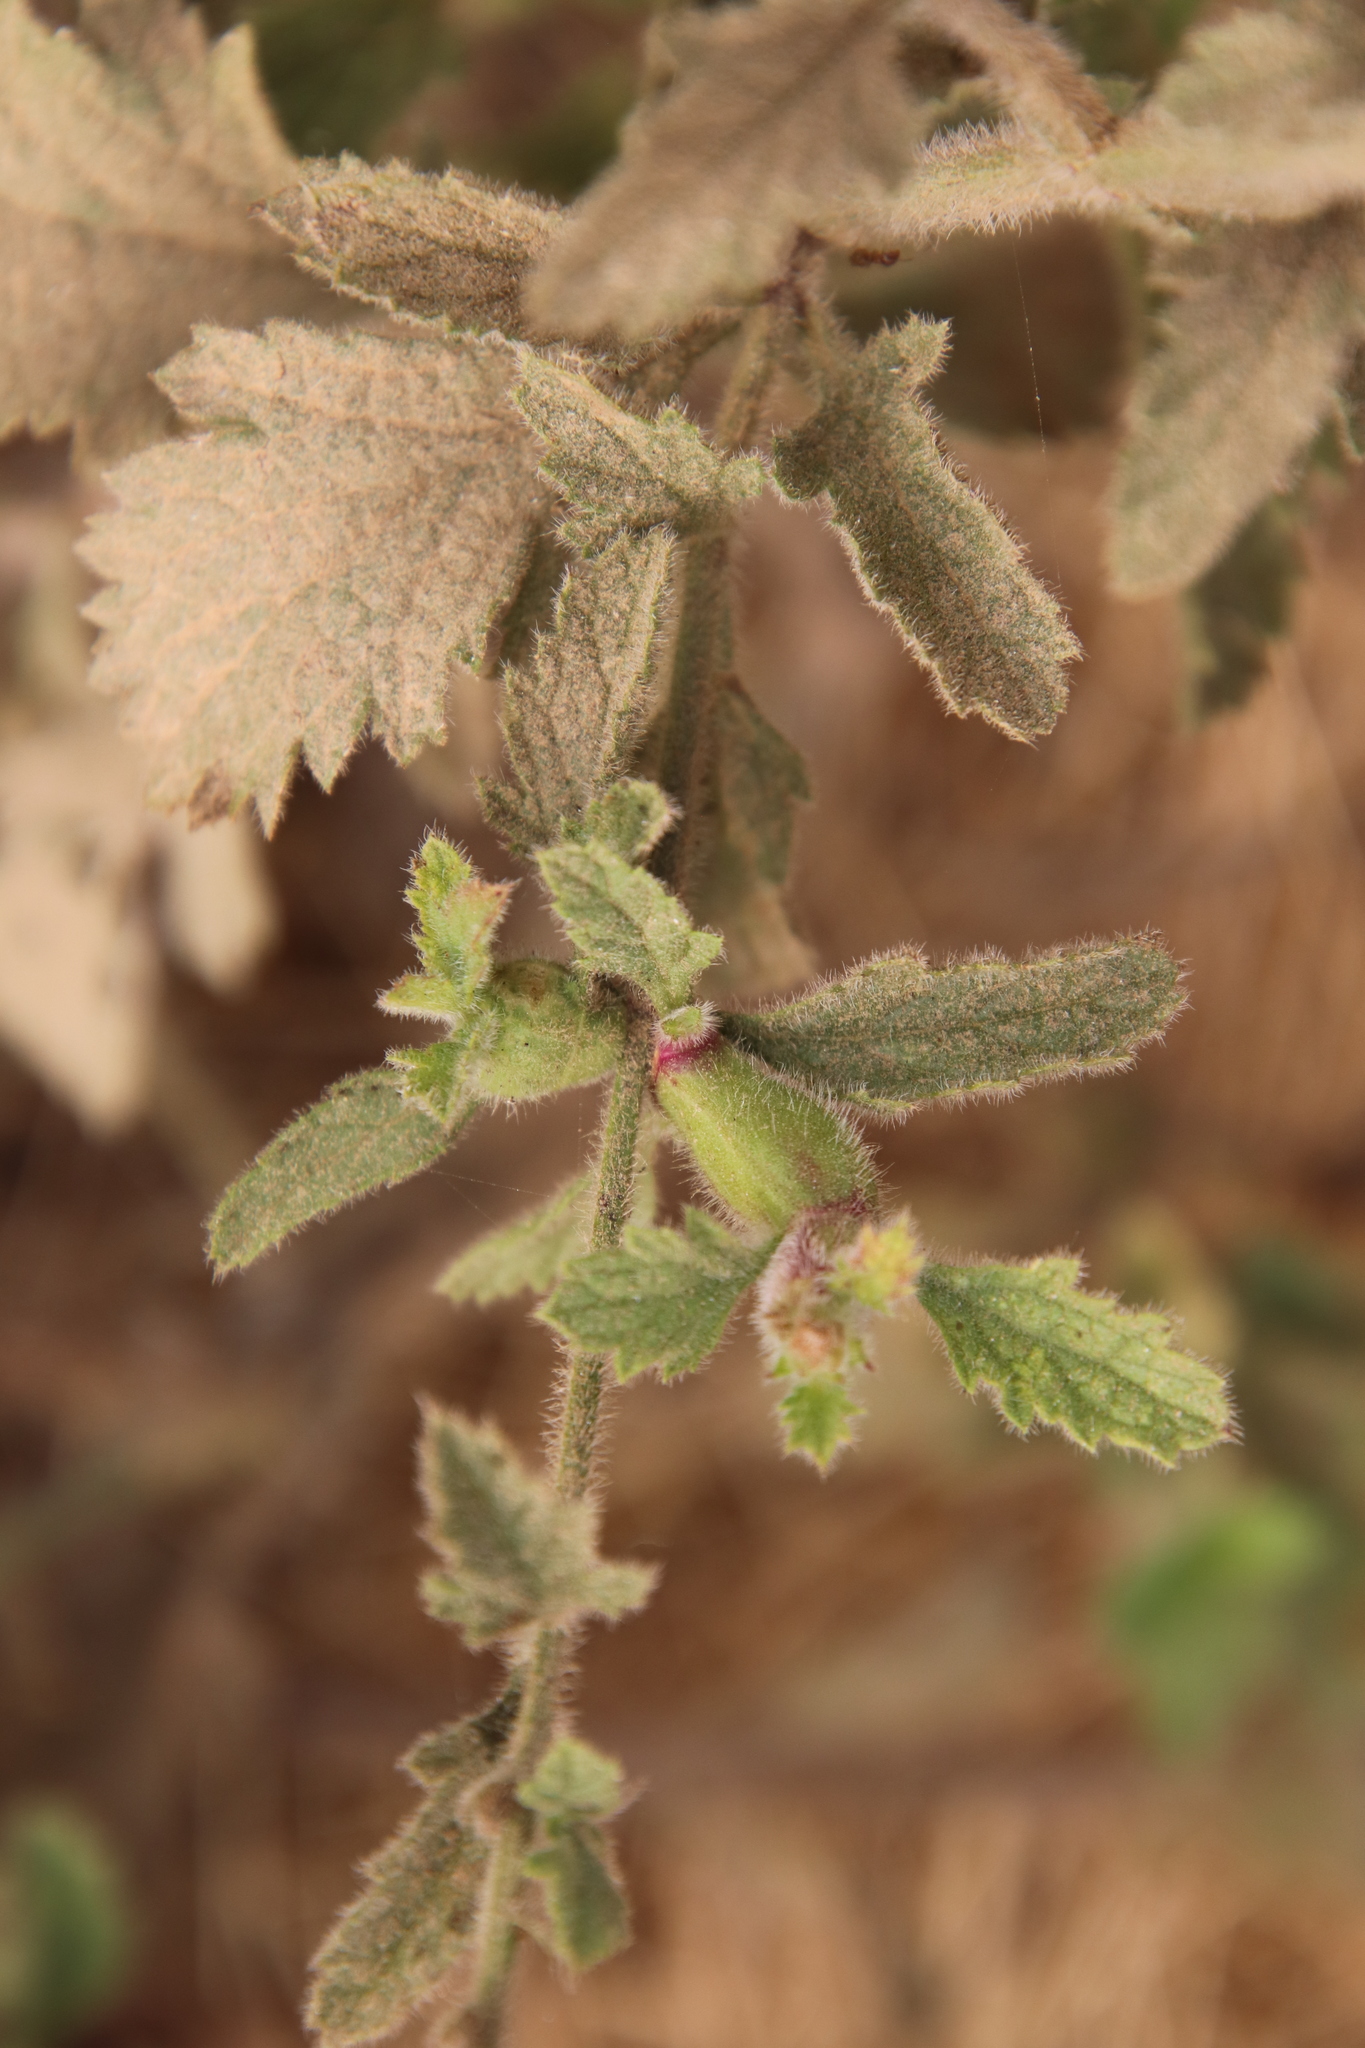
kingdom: Plantae
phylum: Tracheophyta
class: Magnoliopsida
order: Lamiales
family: Verbenaceae
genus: Verbena
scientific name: Verbena lasiostachys
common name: Vervain
